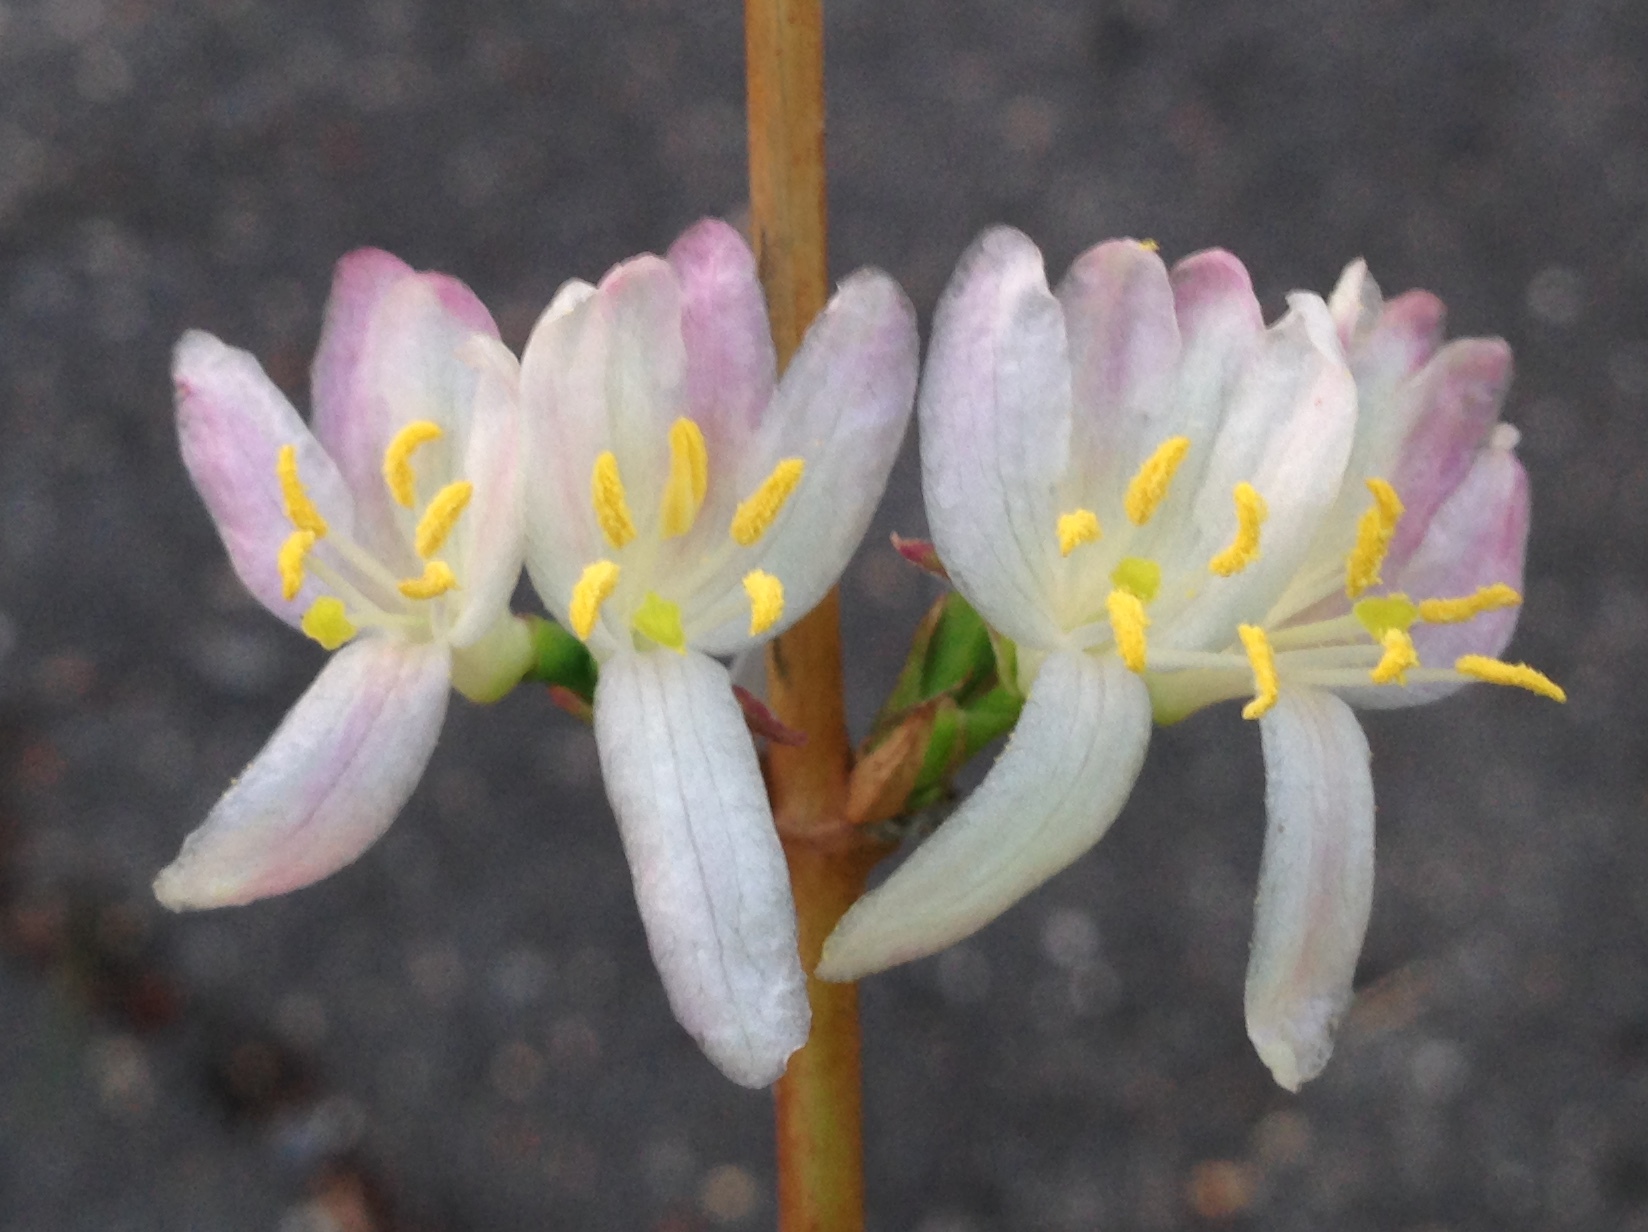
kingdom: Plantae
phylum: Tracheophyta
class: Magnoliopsida
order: Dipsacales
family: Caprifoliaceae
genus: Lonicera
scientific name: Lonicera fragrantissima
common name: Fragrant honeysuckle
